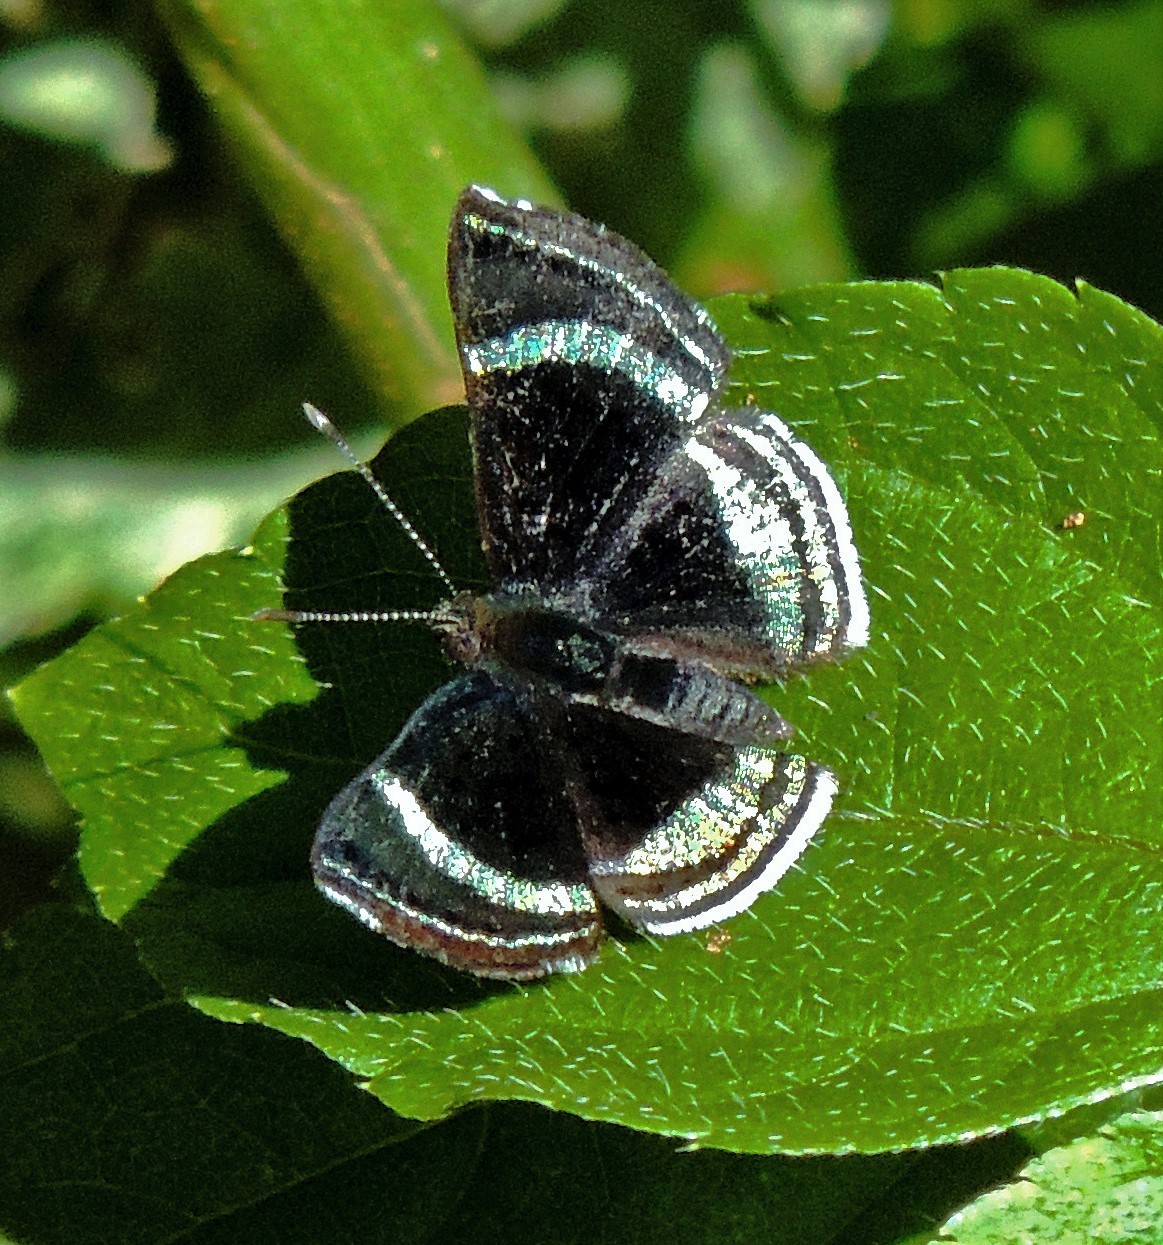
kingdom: Animalia
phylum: Arthropoda
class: Insecta
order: Lepidoptera
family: Riodinidae
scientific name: Riodinidae
